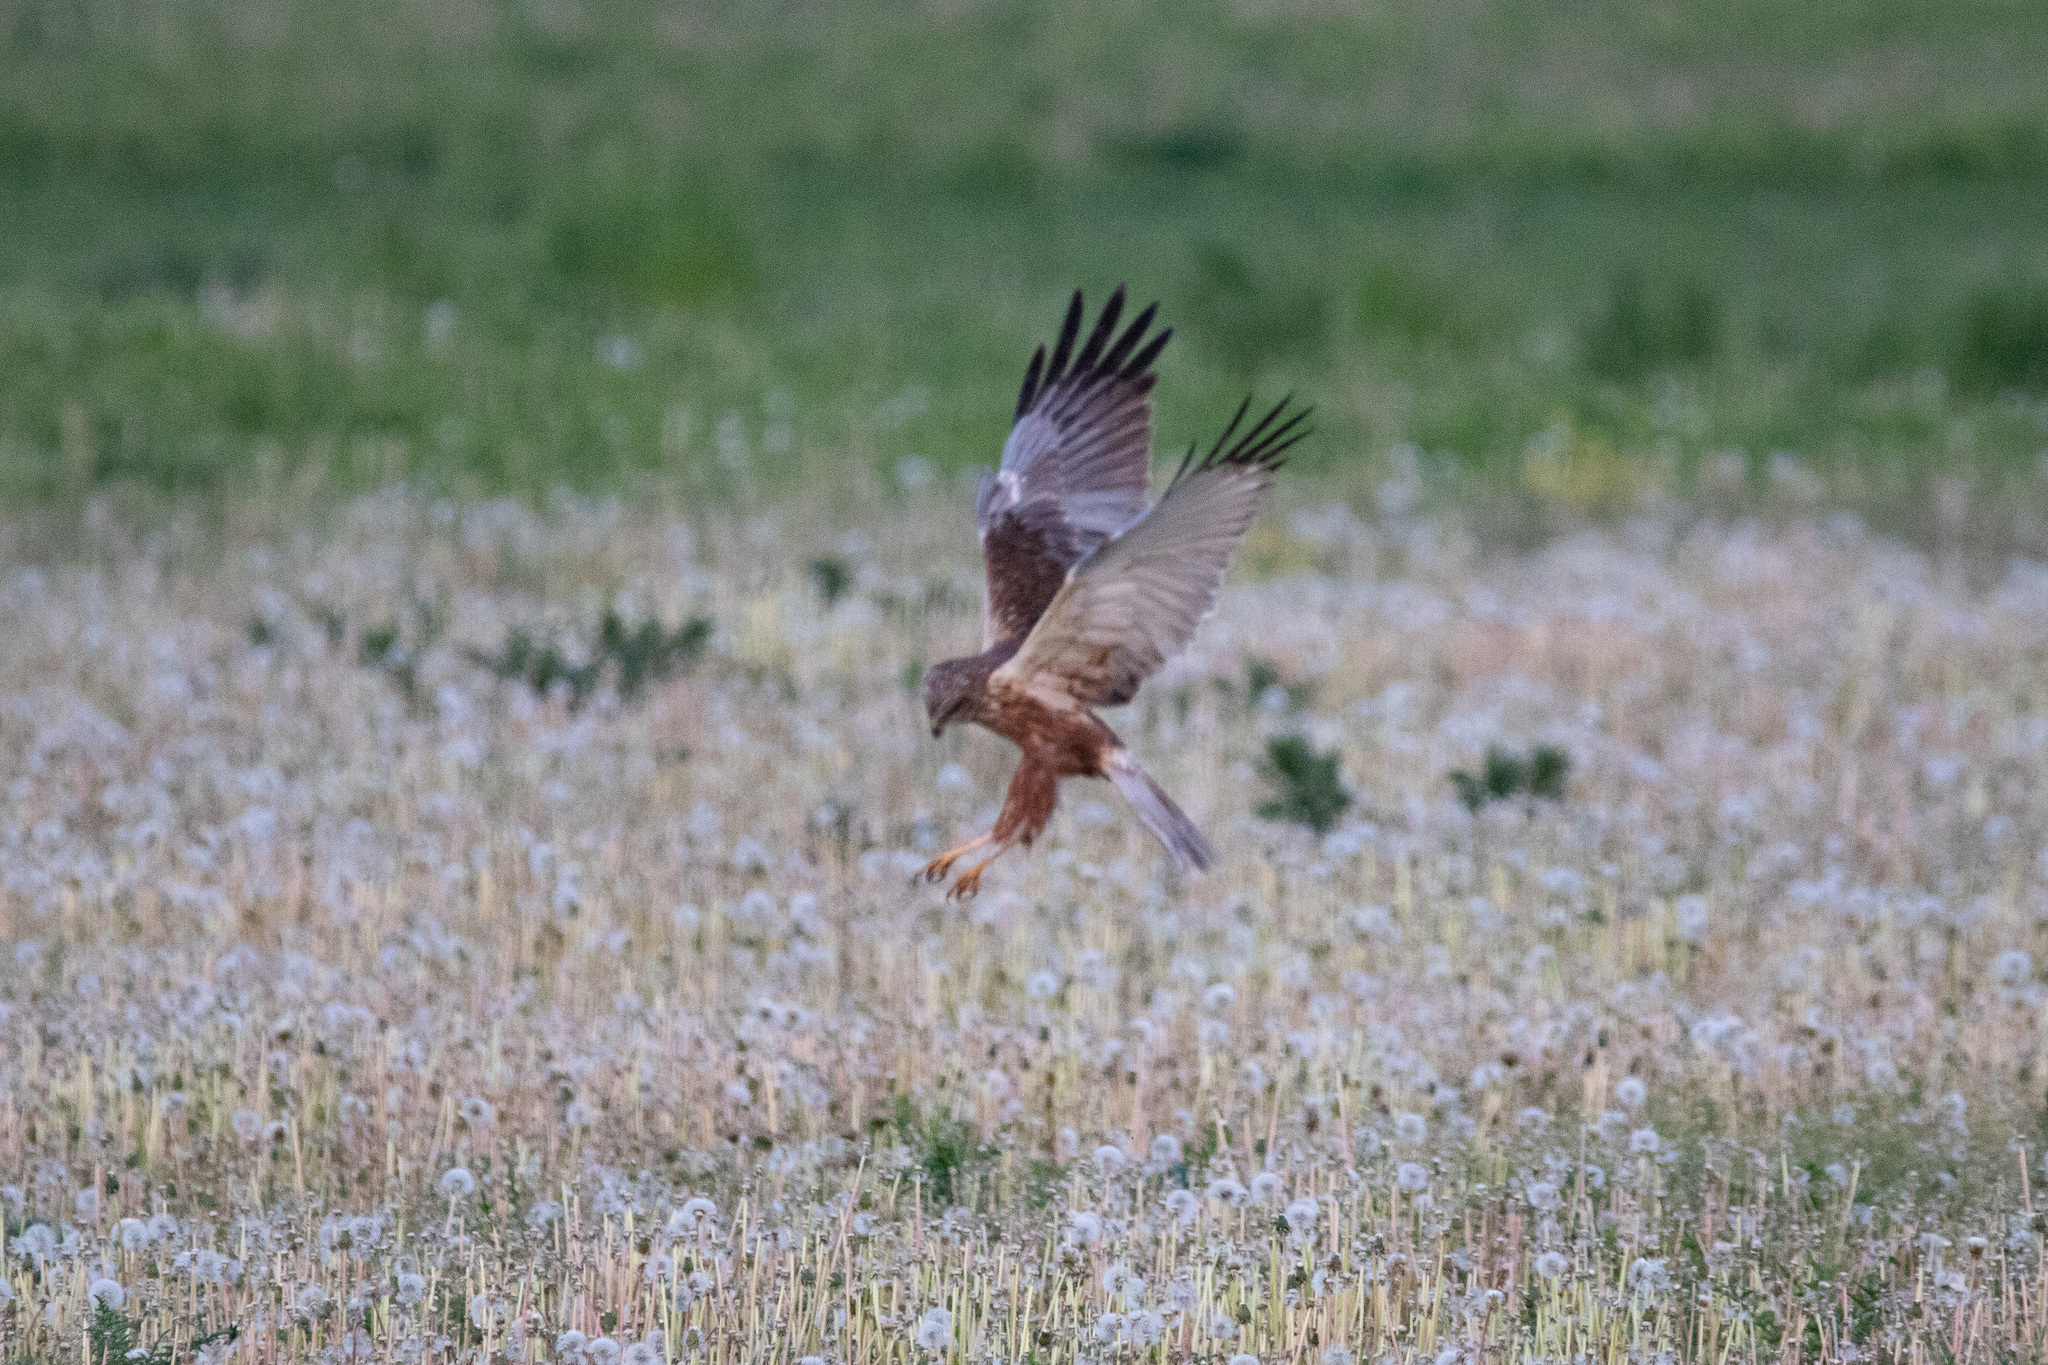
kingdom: Animalia
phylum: Chordata
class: Aves
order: Accipitriformes
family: Accipitridae
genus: Circus
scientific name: Circus aeruginosus
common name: Western marsh harrier
